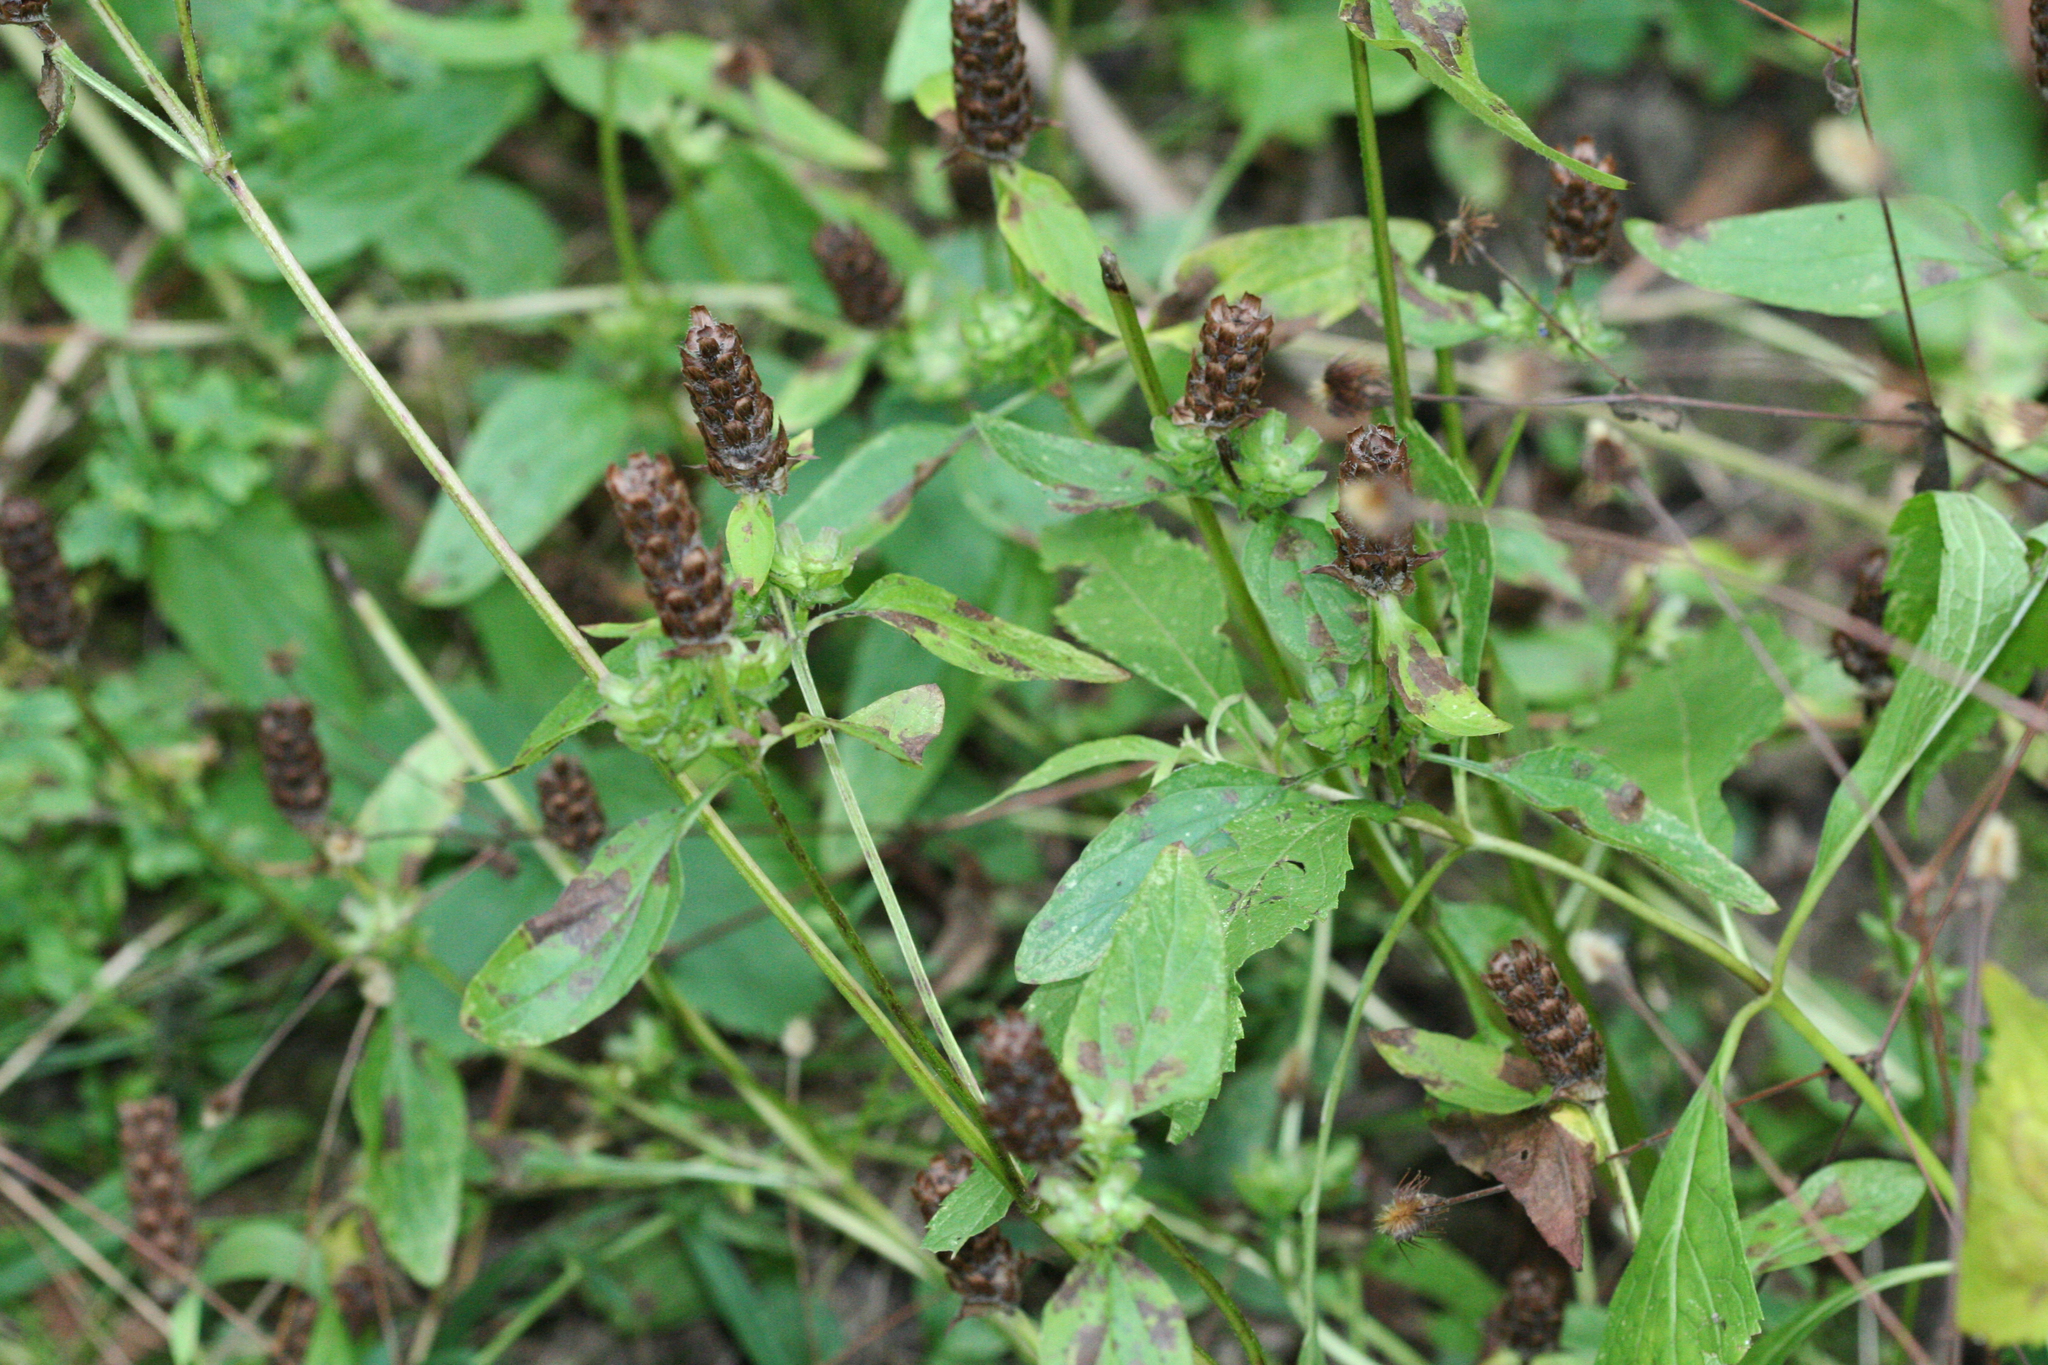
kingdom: Plantae
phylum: Tracheophyta
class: Magnoliopsida
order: Lamiales
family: Lamiaceae
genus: Prunella
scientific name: Prunella vulgaris
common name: Heal-all
